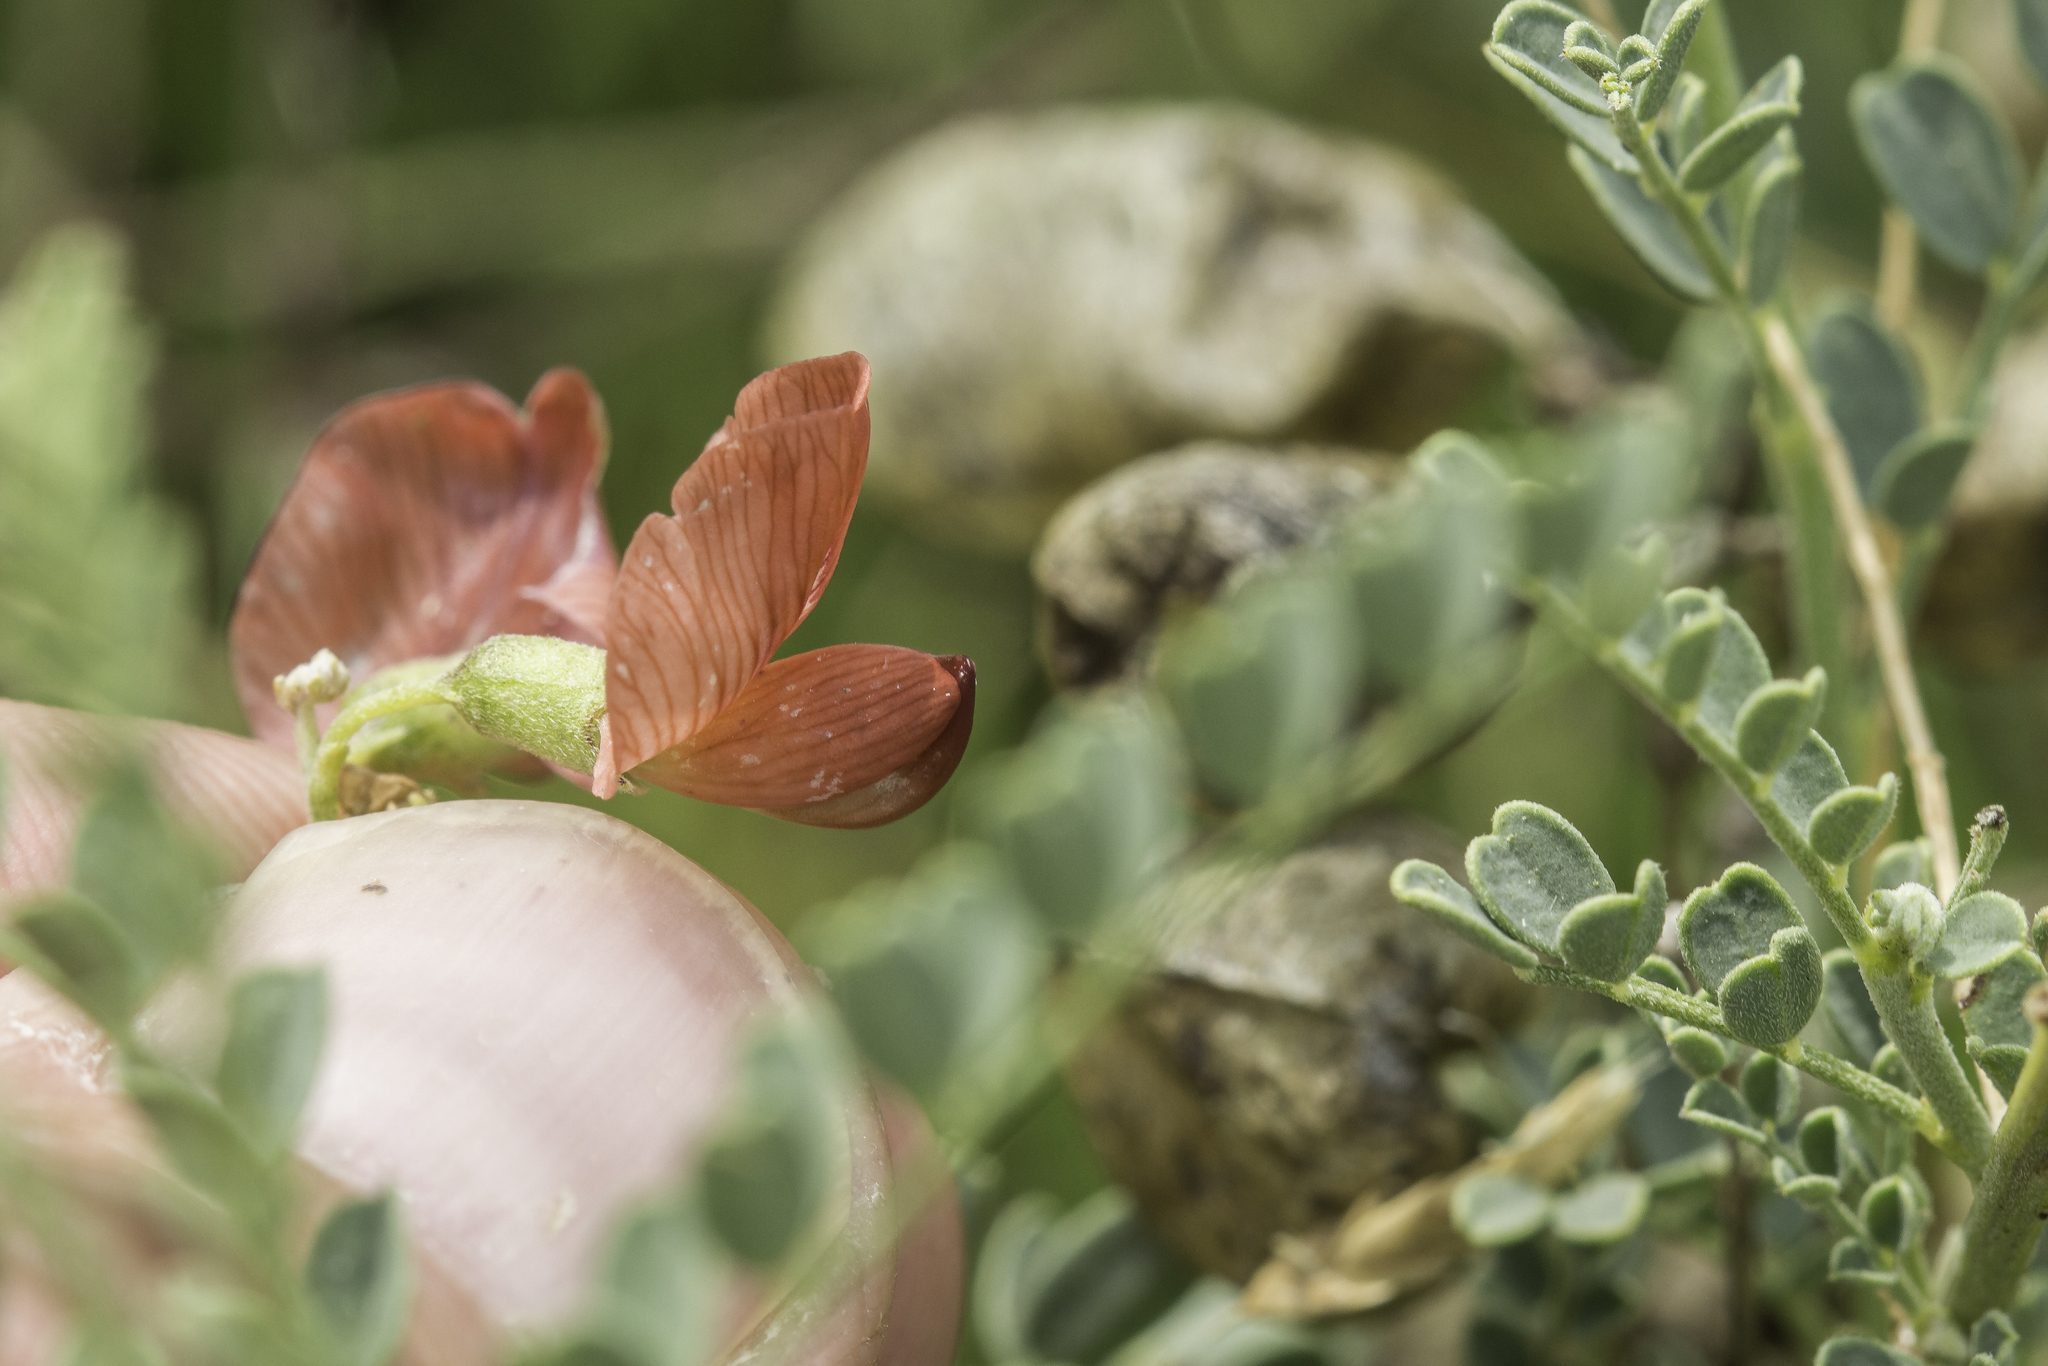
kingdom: Plantae
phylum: Tracheophyta
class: Magnoliopsida
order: Fabales
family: Fabaceae
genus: Sphaerophysa
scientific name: Sphaerophysa salsula
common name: Alkali swainsonpea
